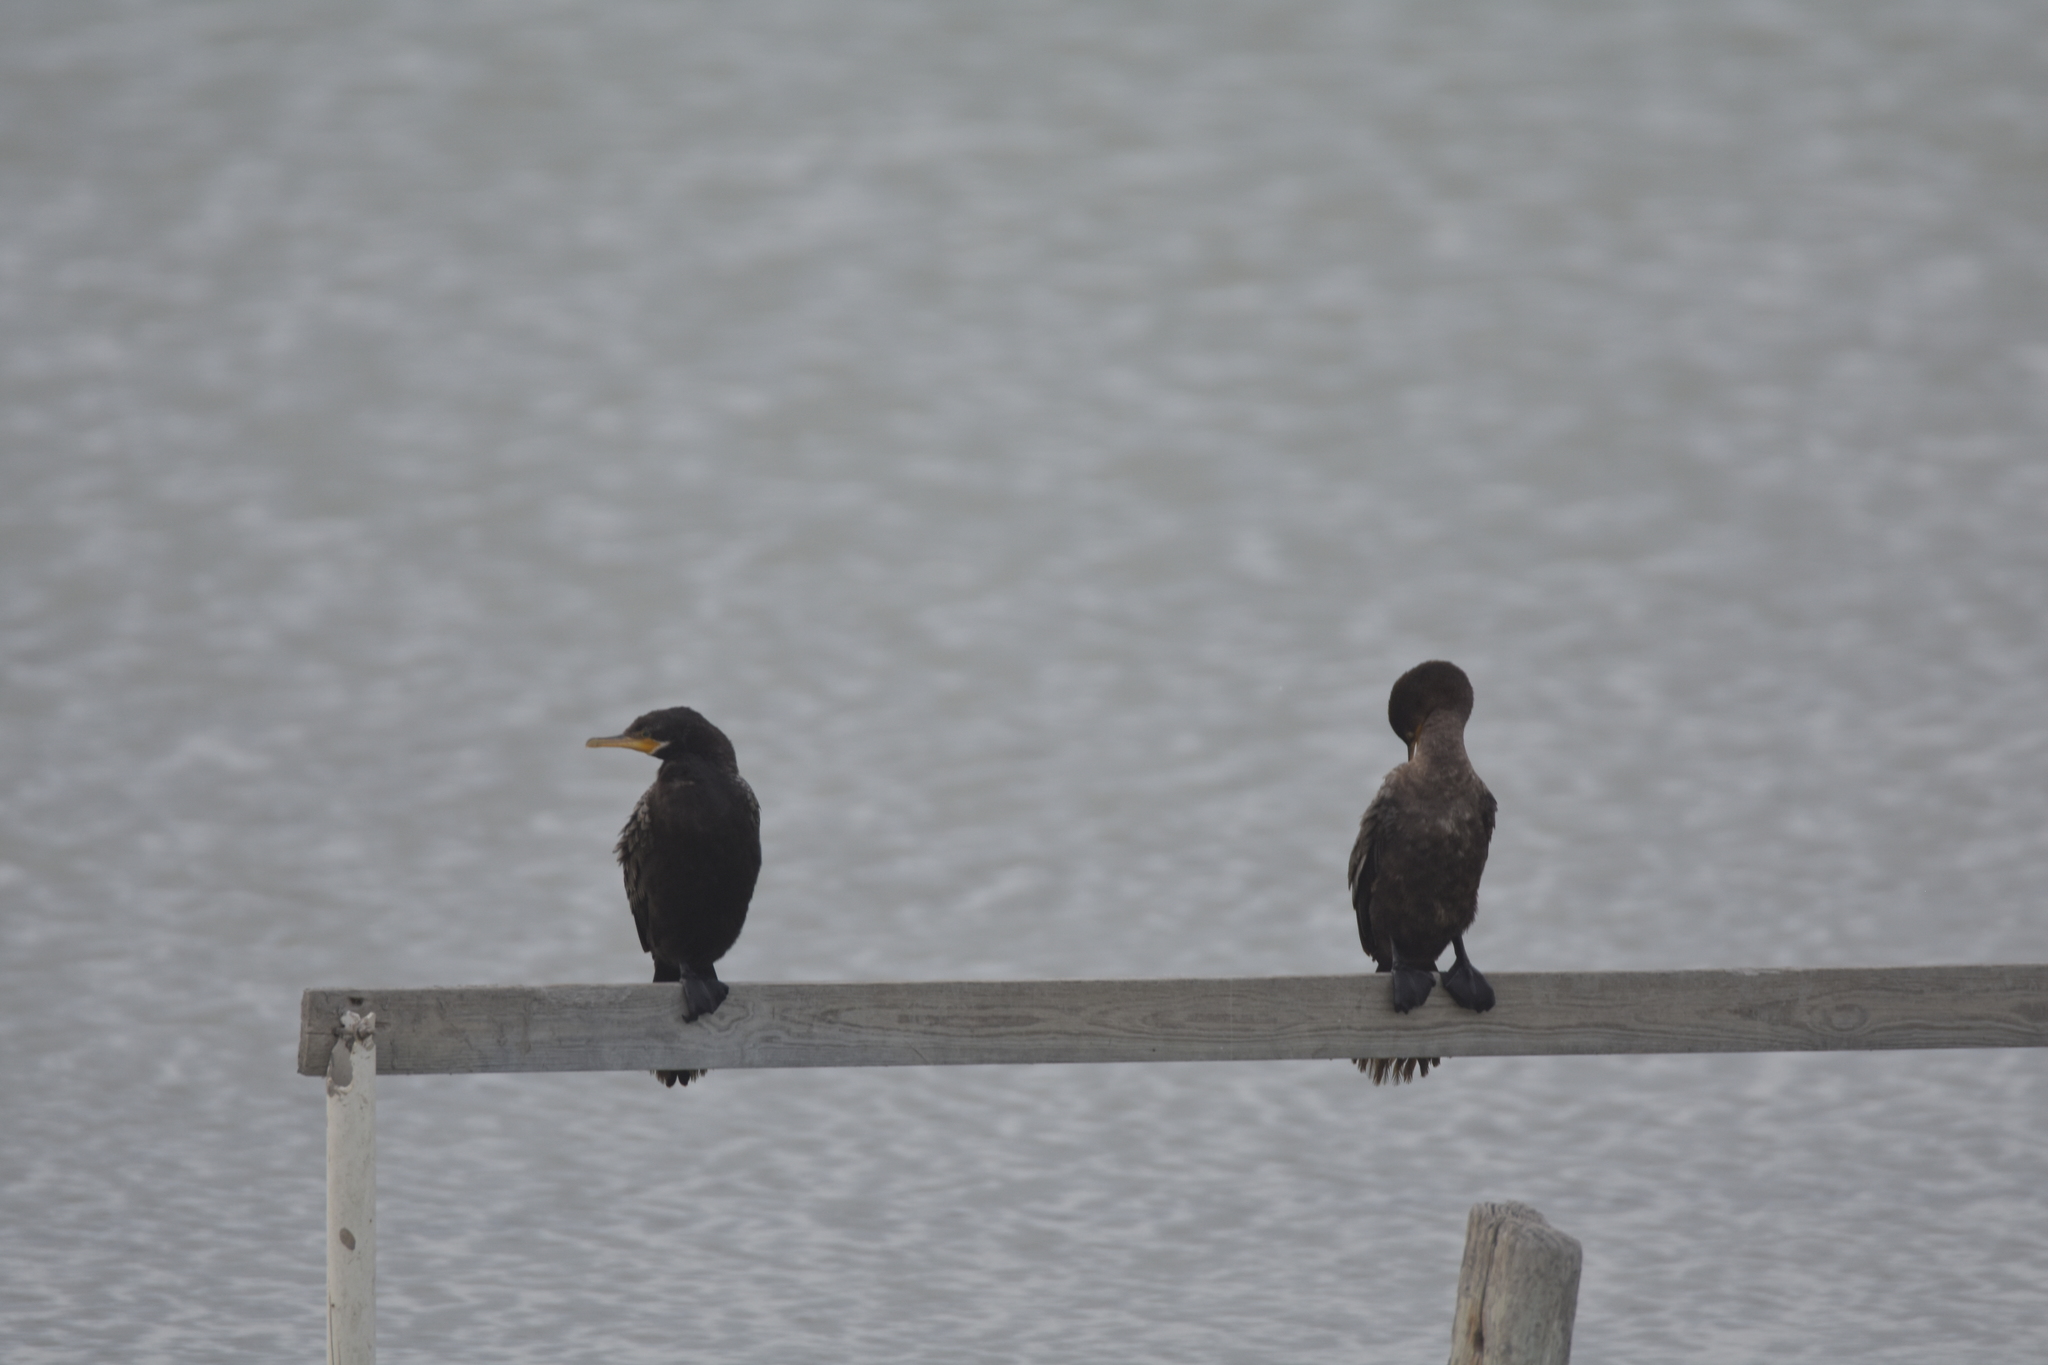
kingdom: Animalia
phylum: Chordata
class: Aves
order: Suliformes
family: Phalacrocoracidae
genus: Phalacrocorax
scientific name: Phalacrocorax brasilianus
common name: Neotropic cormorant
